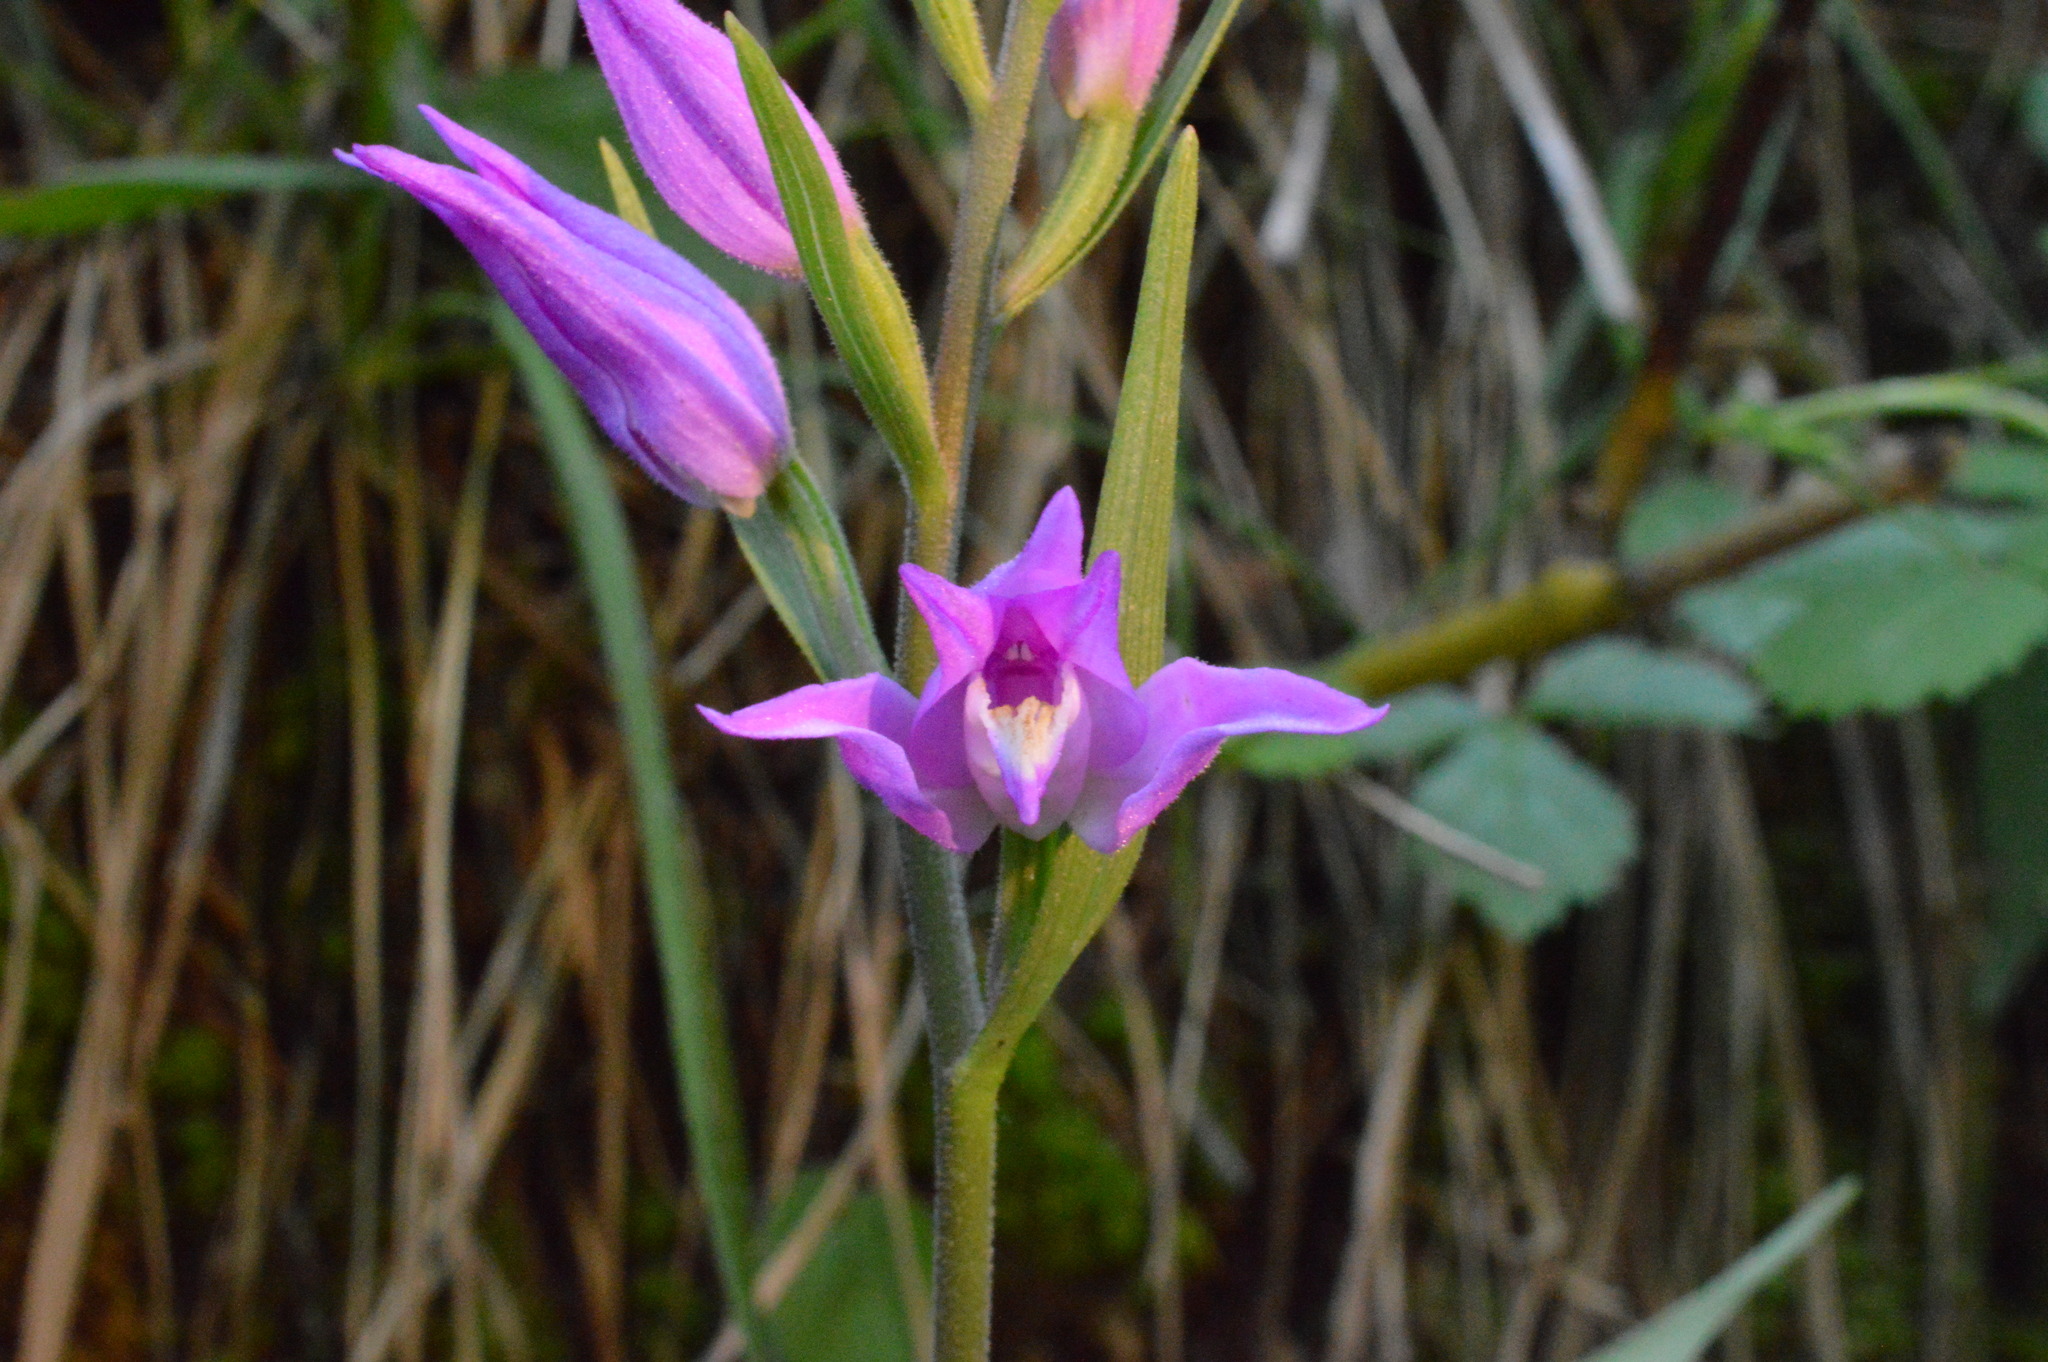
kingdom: Plantae
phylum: Tracheophyta
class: Liliopsida
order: Asparagales
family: Orchidaceae
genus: Cephalanthera
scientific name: Cephalanthera rubra
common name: Red helleborine
